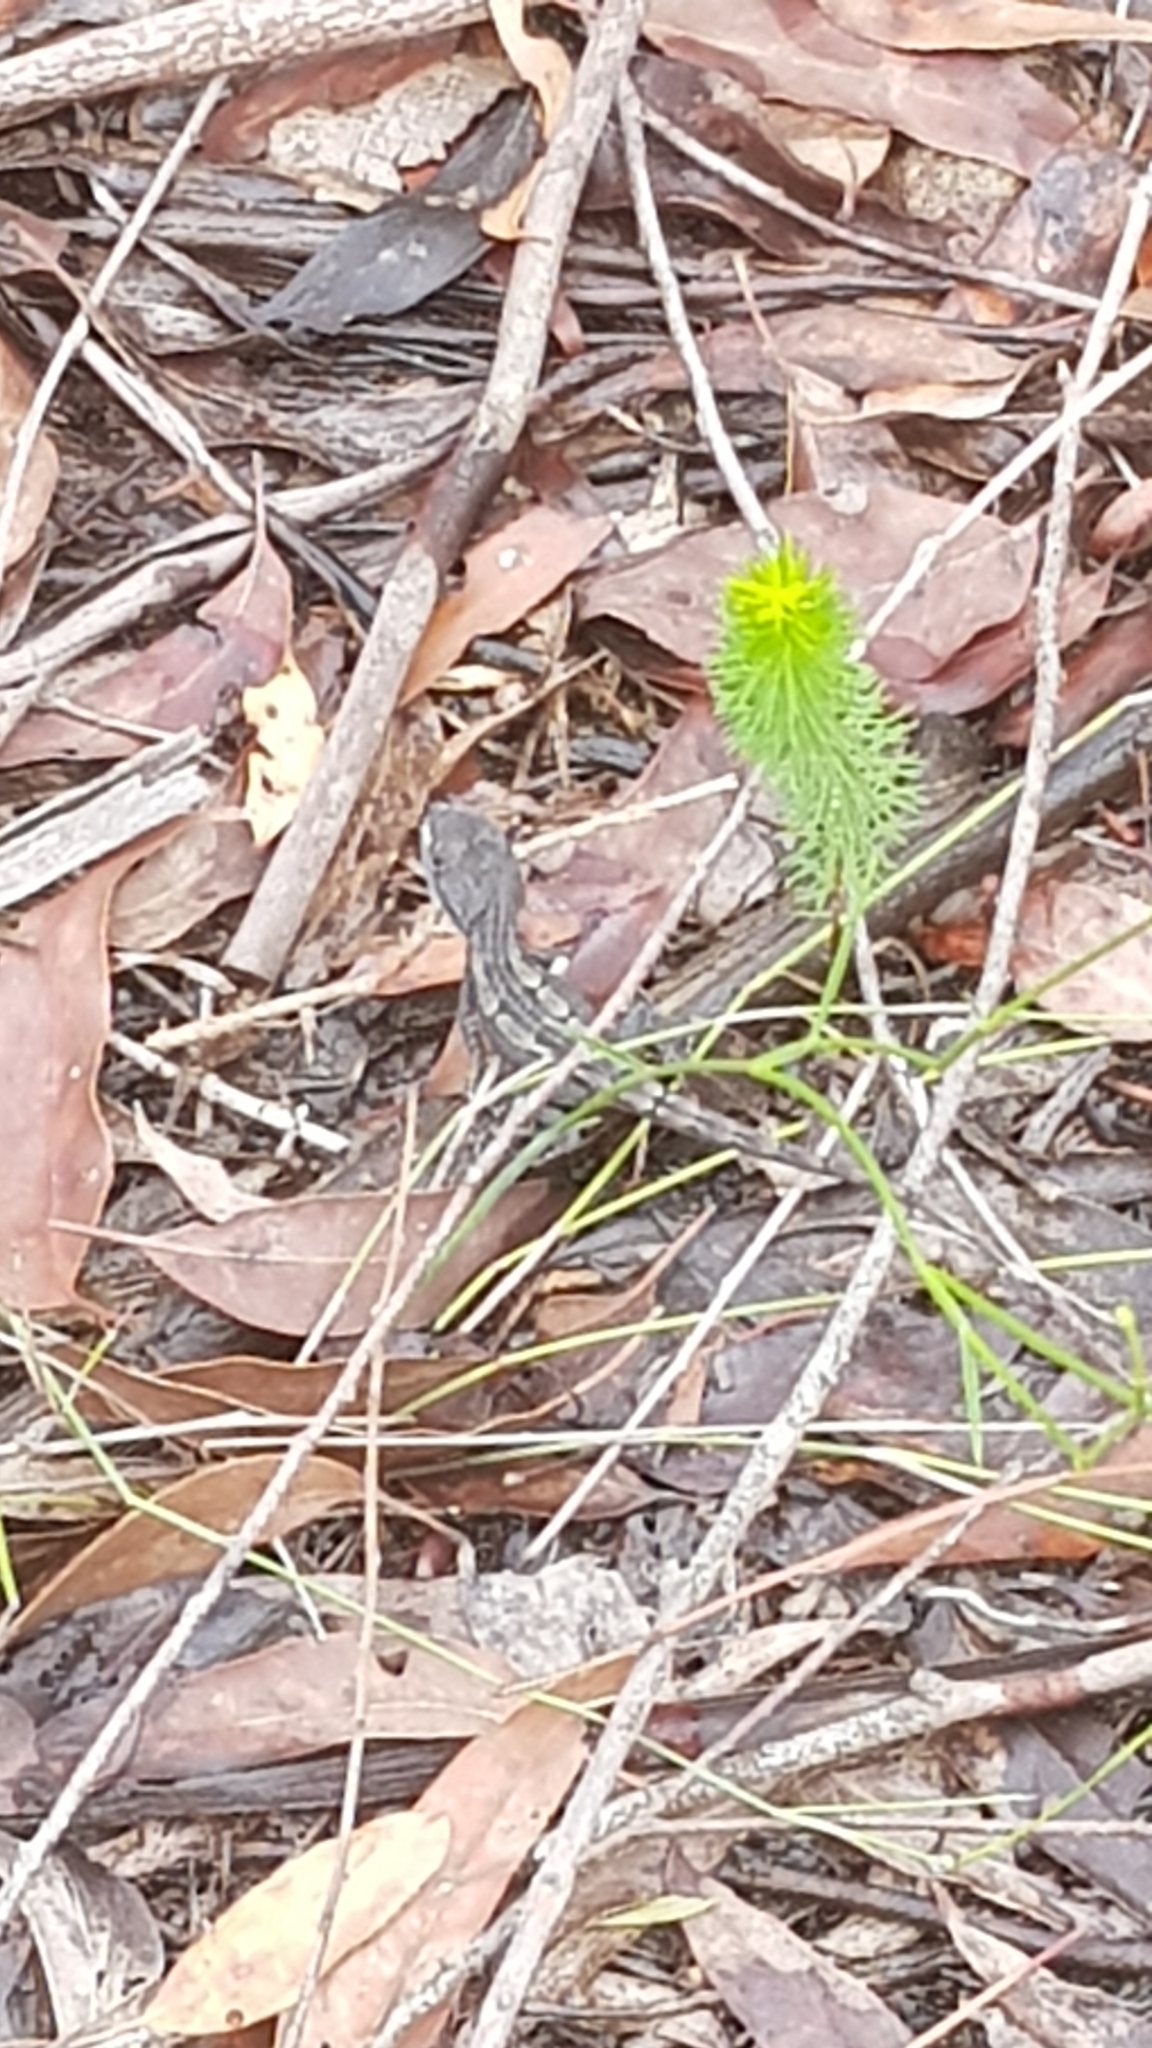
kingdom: Animalia
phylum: Chordata
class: Squamata
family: Agamidae
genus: Amphibolurus
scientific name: Amphibolurus muricatus
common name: Jacky lizard
